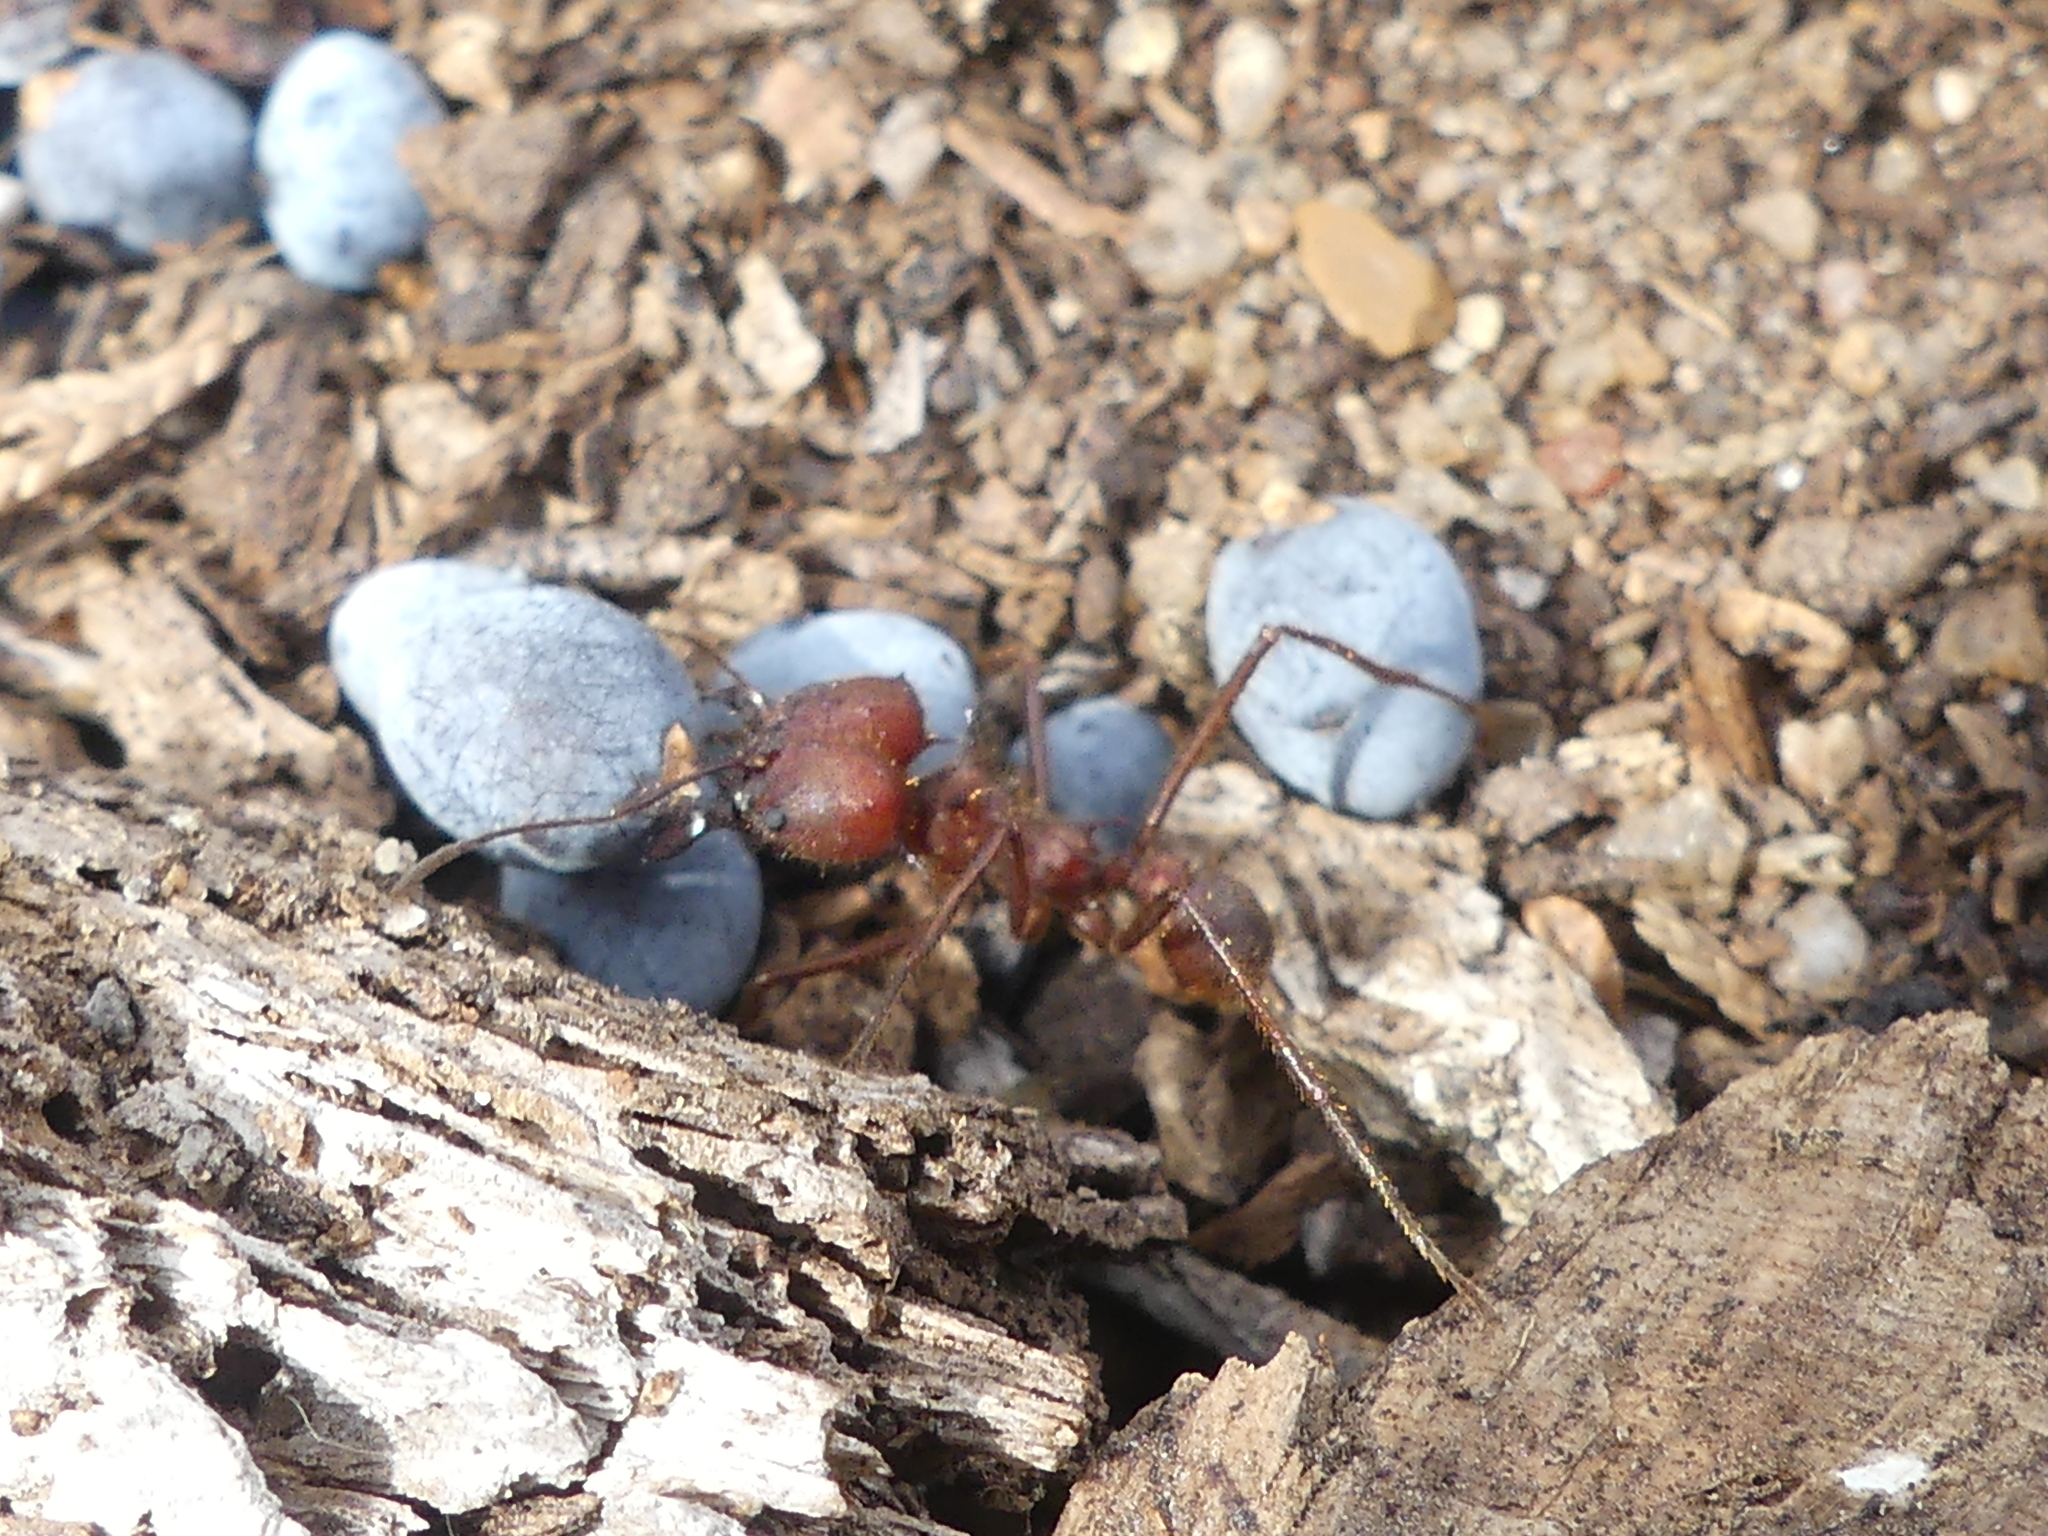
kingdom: Animalia
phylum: Arthropoda
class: Insecta
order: Hymenoptera
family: Formicidae
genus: Atta
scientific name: Atta texana
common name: Texas leafcutting ant
